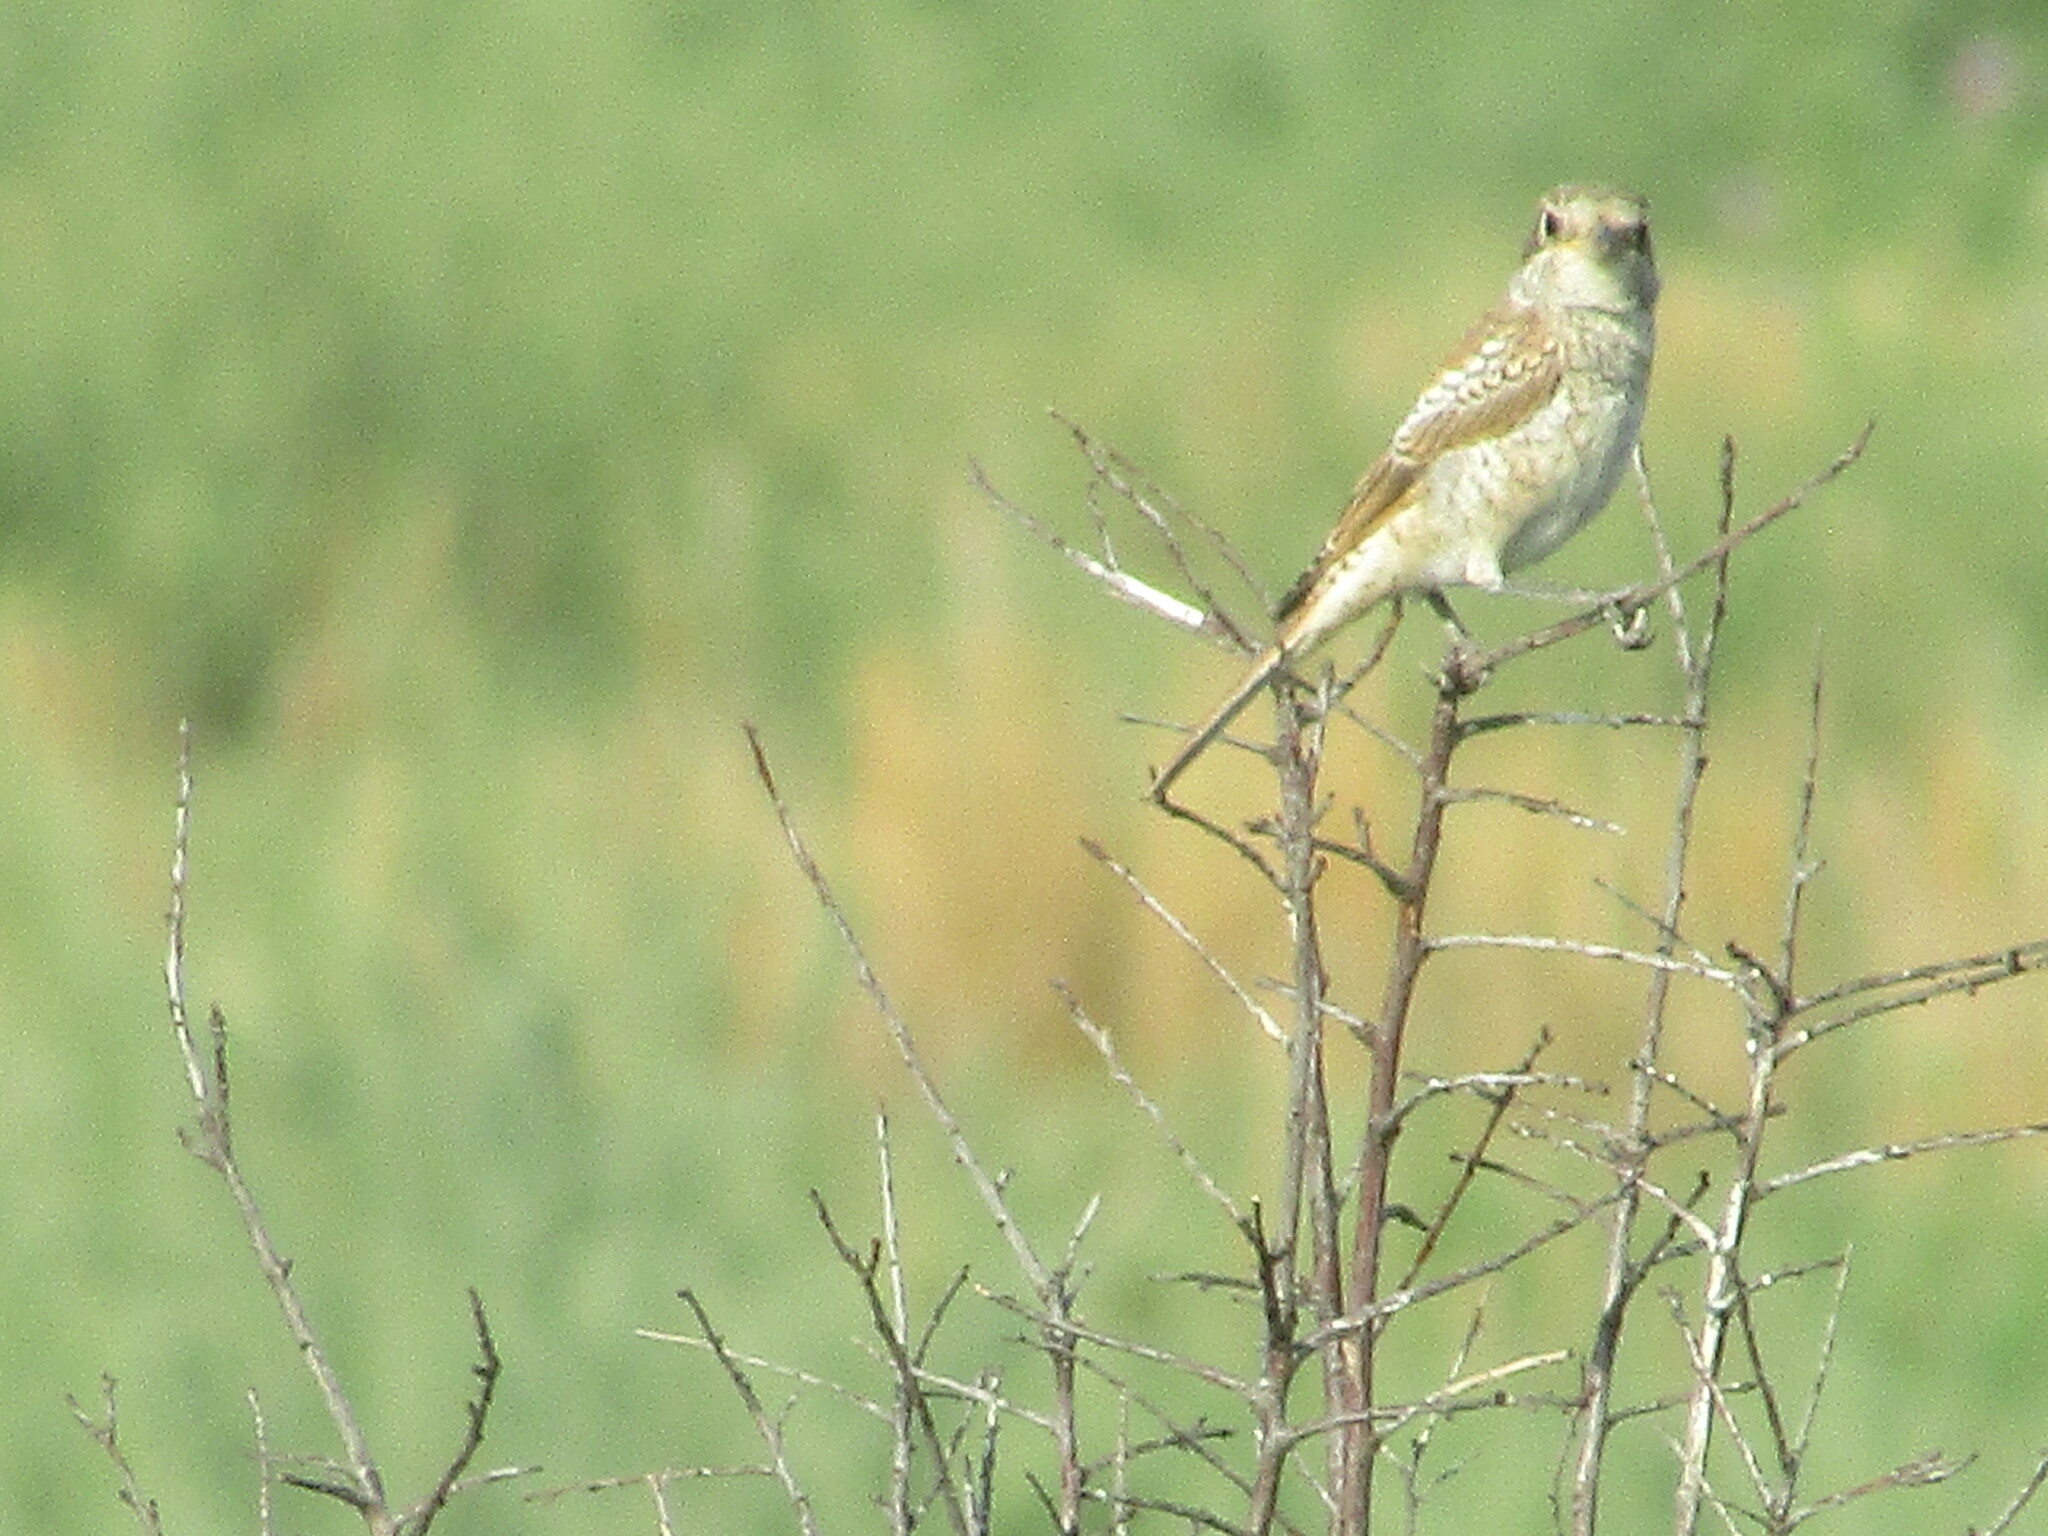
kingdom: Animalia
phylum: Chordata
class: Aves
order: Passeriformes
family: Laniidae
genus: Lanius
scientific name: Lanius senator
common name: Woodchat shrike
